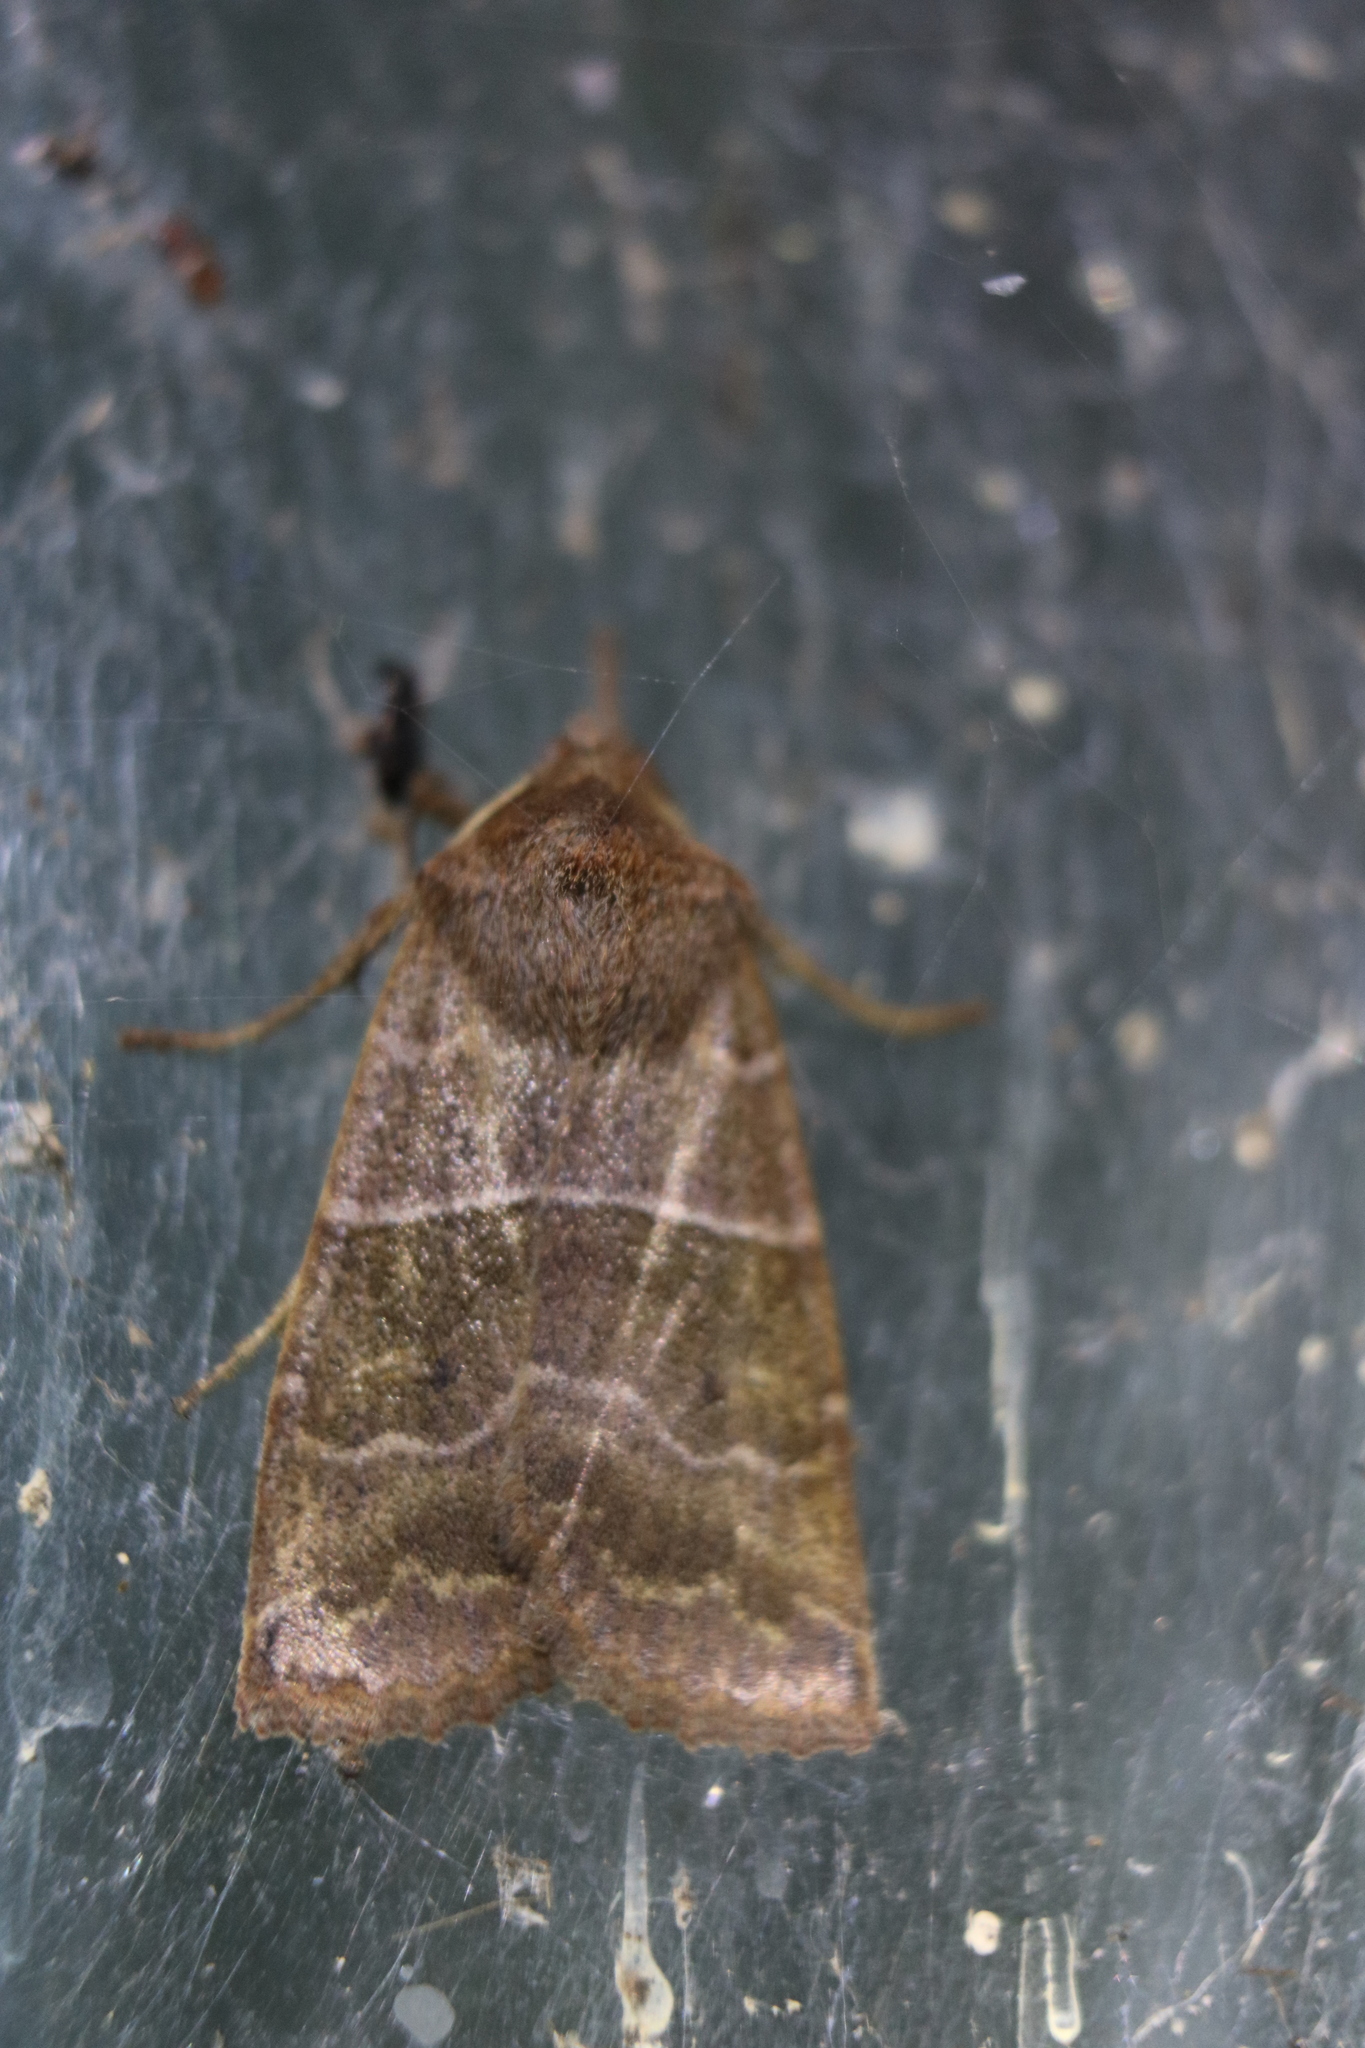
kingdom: Animalia
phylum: Arthropoda
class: Insecta
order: Lepidoptera
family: Noctuidae
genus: Eupsilia
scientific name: Eupsilia morrisoni
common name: Morrison's sallow
